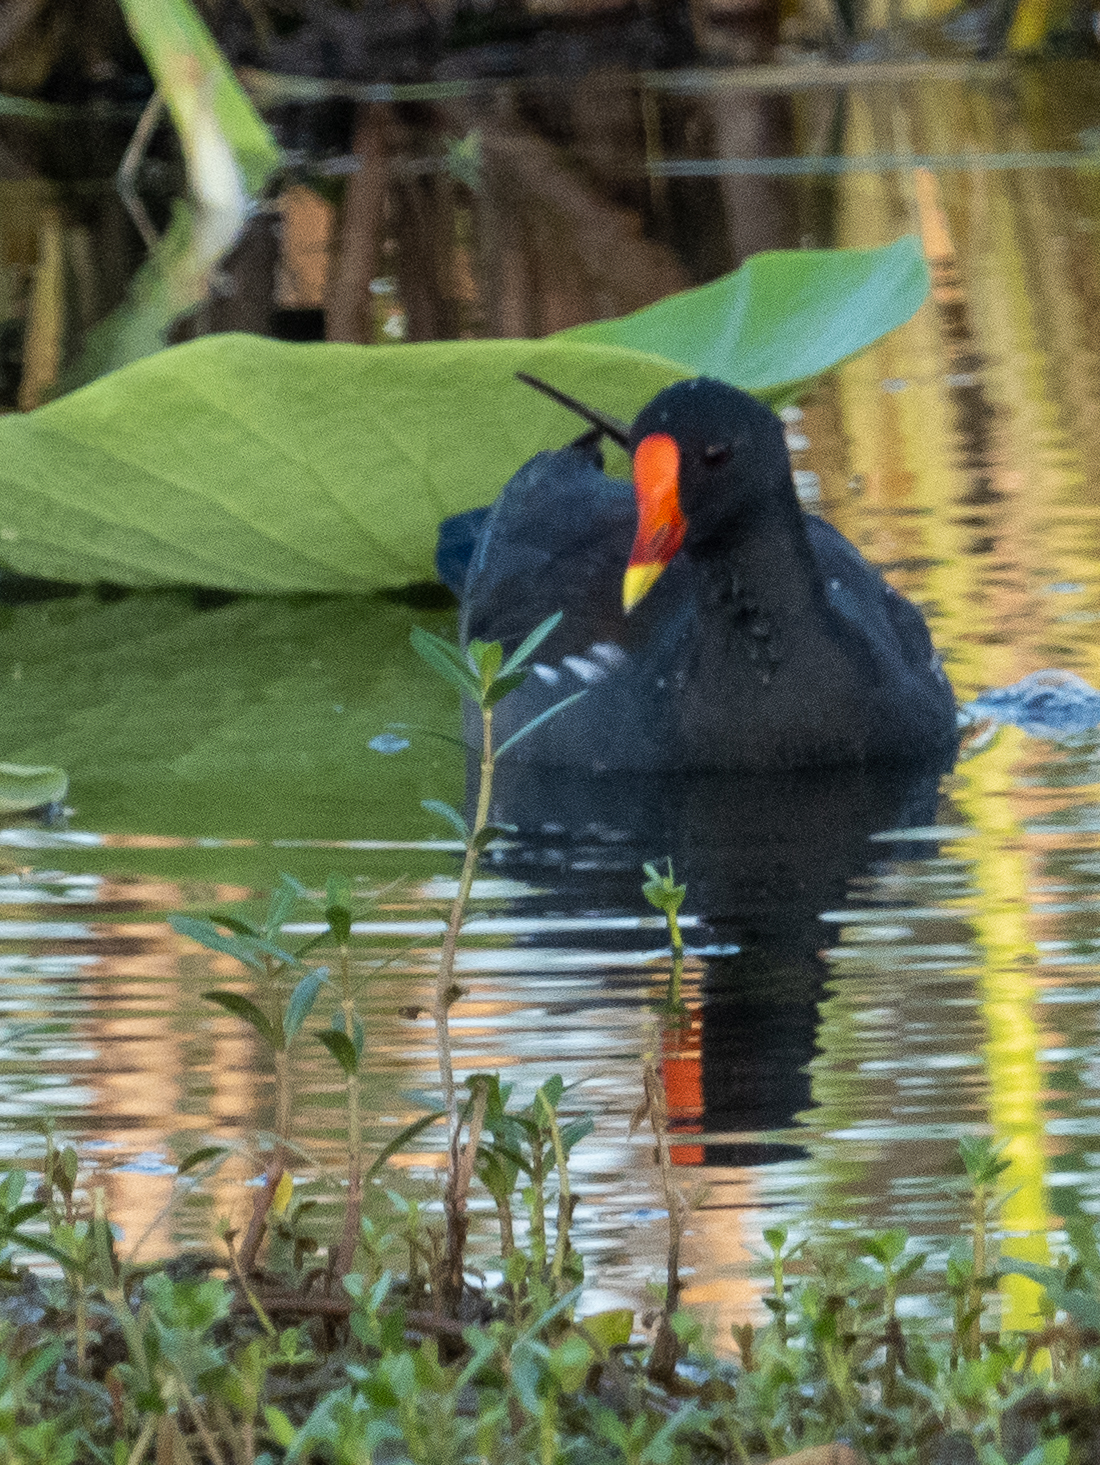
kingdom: Animalia
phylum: Chordata
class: Aves
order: Gruiformes
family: Rallidae
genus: Gallinula
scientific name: Gallinula chloropus
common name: Common moorhen
